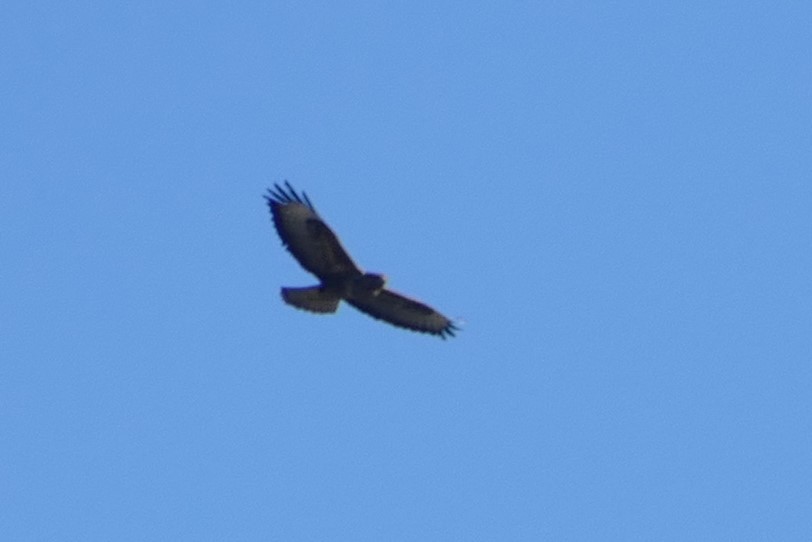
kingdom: Animalia
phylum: Chordata
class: Aves
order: Accipitriformes
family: Accipitridae
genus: Buteo
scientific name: Buteo buteo
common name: Common buzzard
